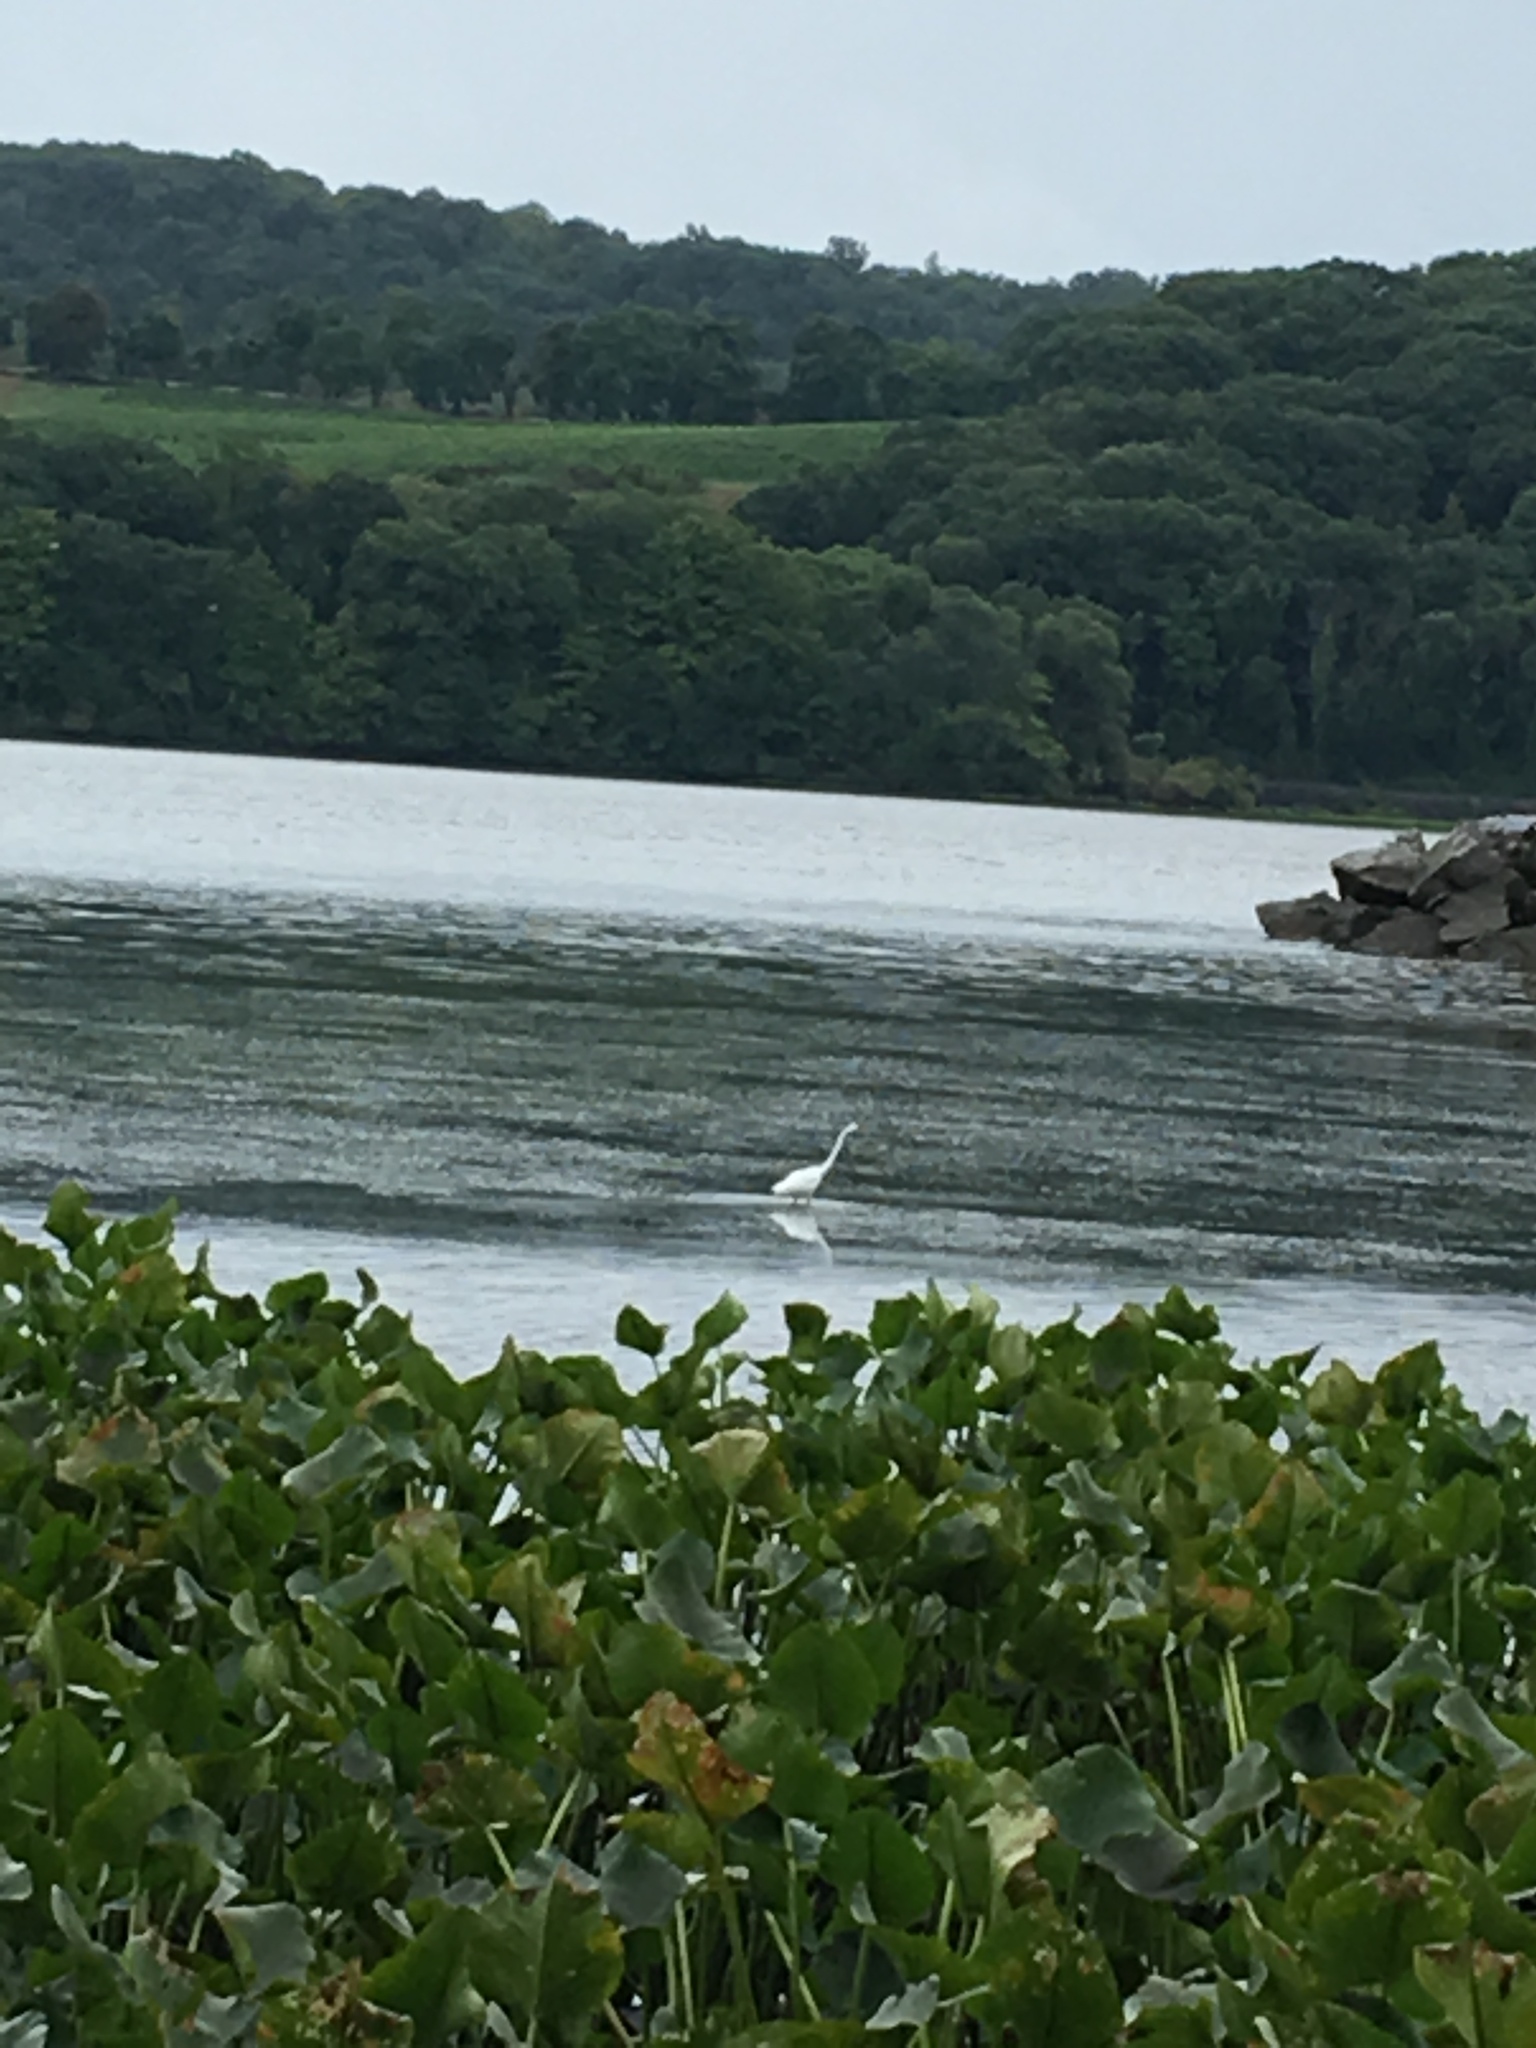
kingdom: Animalia
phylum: Chordata
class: Aves
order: Pelecaniformes
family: Ardeidae
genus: Ardea
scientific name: Ardea alba
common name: Great egret
